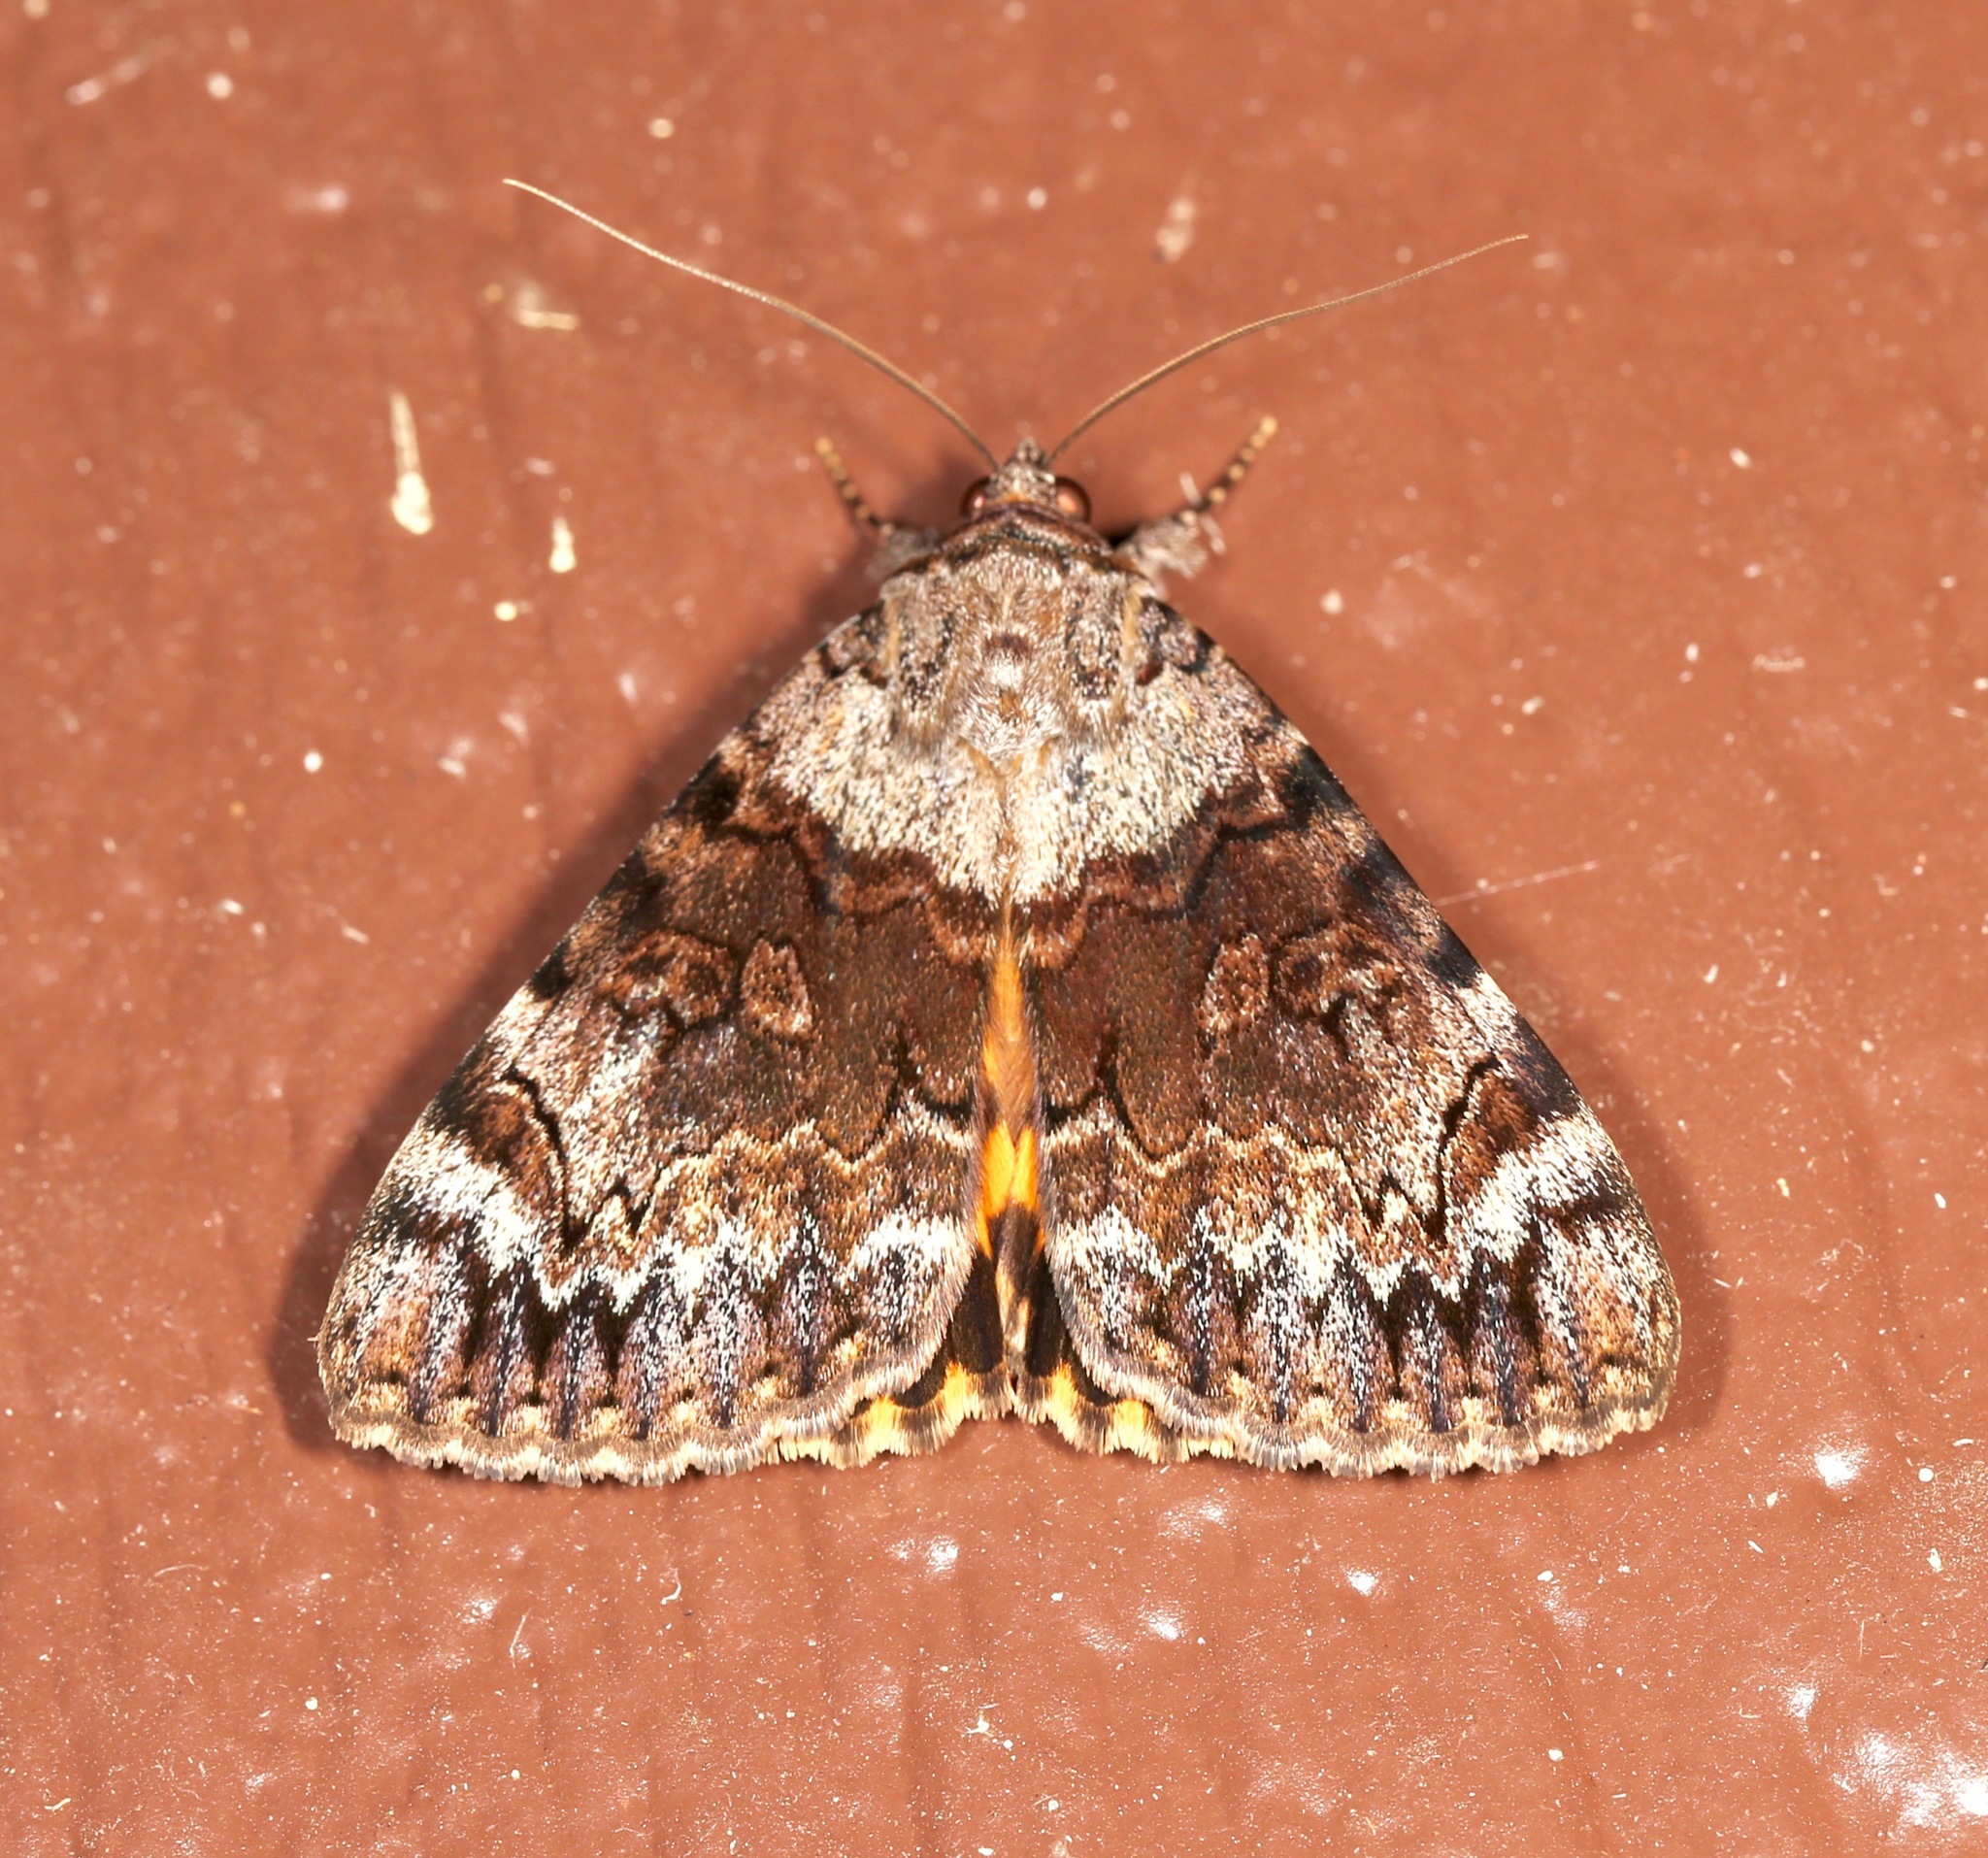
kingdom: Animalia
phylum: Arthropoda
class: Insecta
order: Lepidoptera
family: Erebidae
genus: Catocala
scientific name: Catocala desdemona
